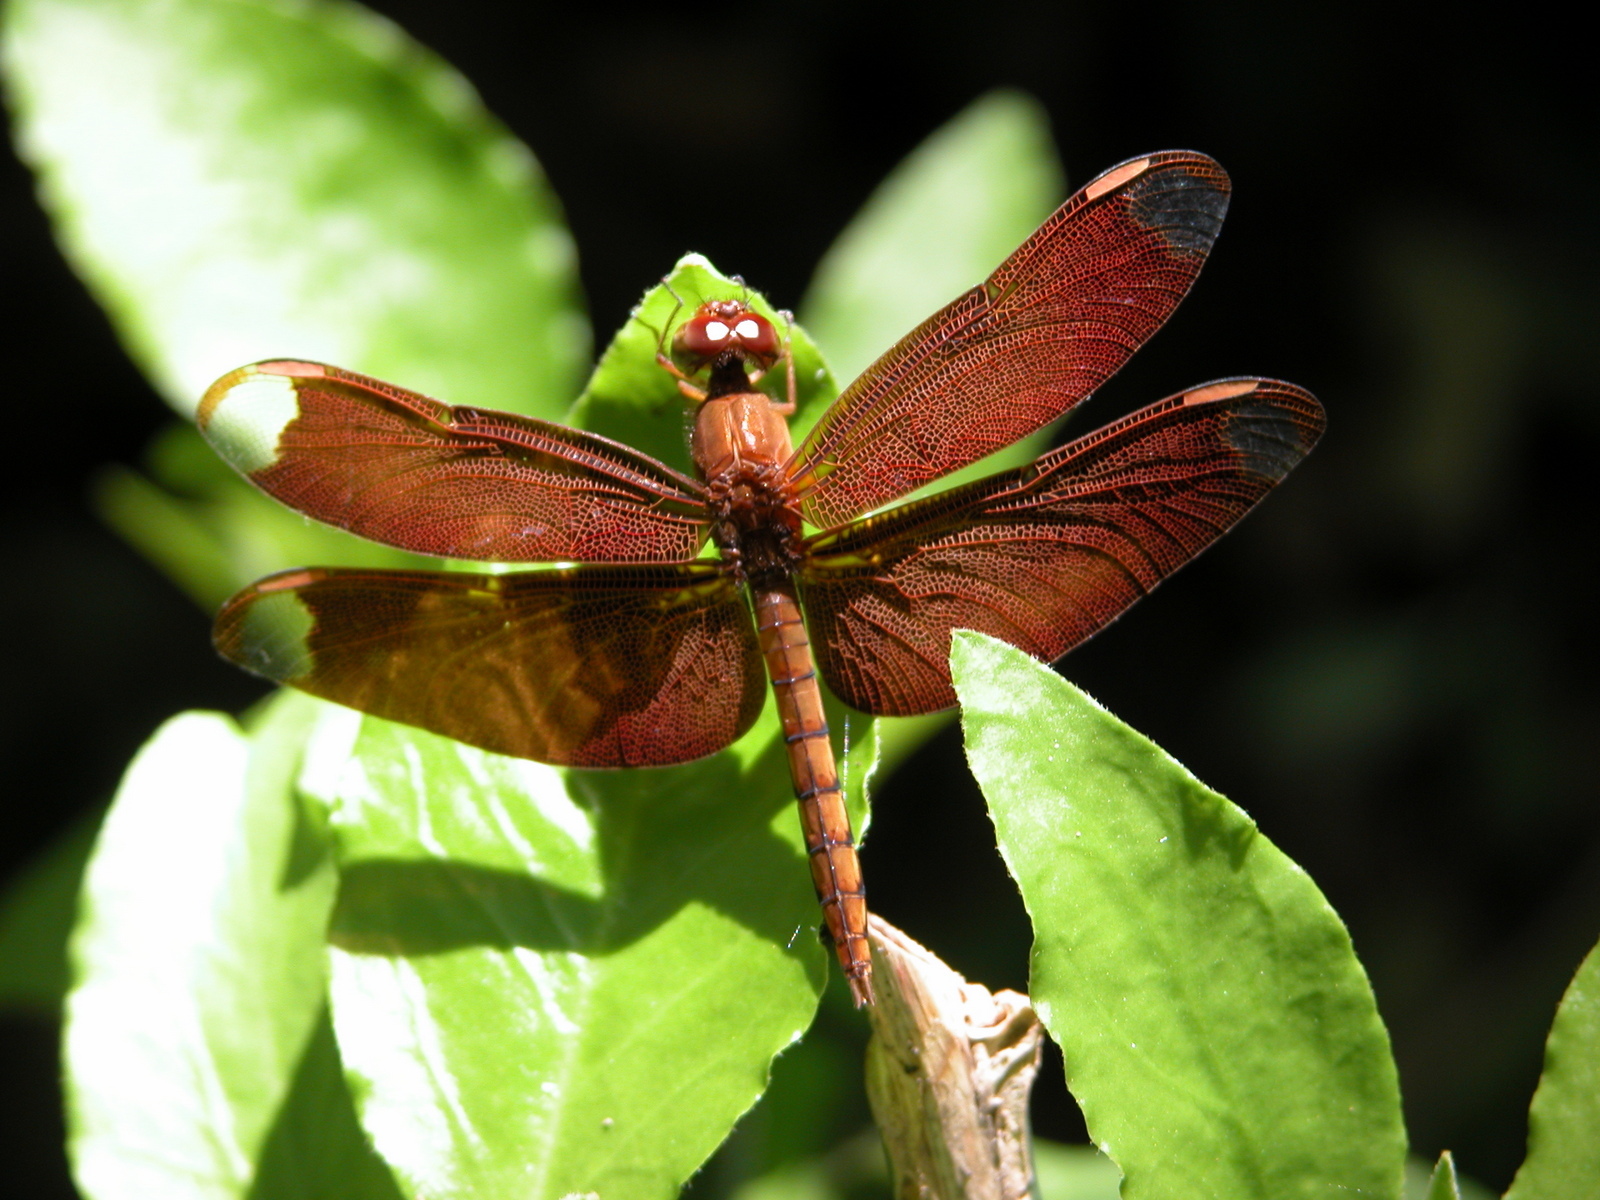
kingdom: Animalia
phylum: Arthropoda
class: Insecta
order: Odonata
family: Libellulidae
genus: Neurothemis
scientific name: Neurothemis fulvia
